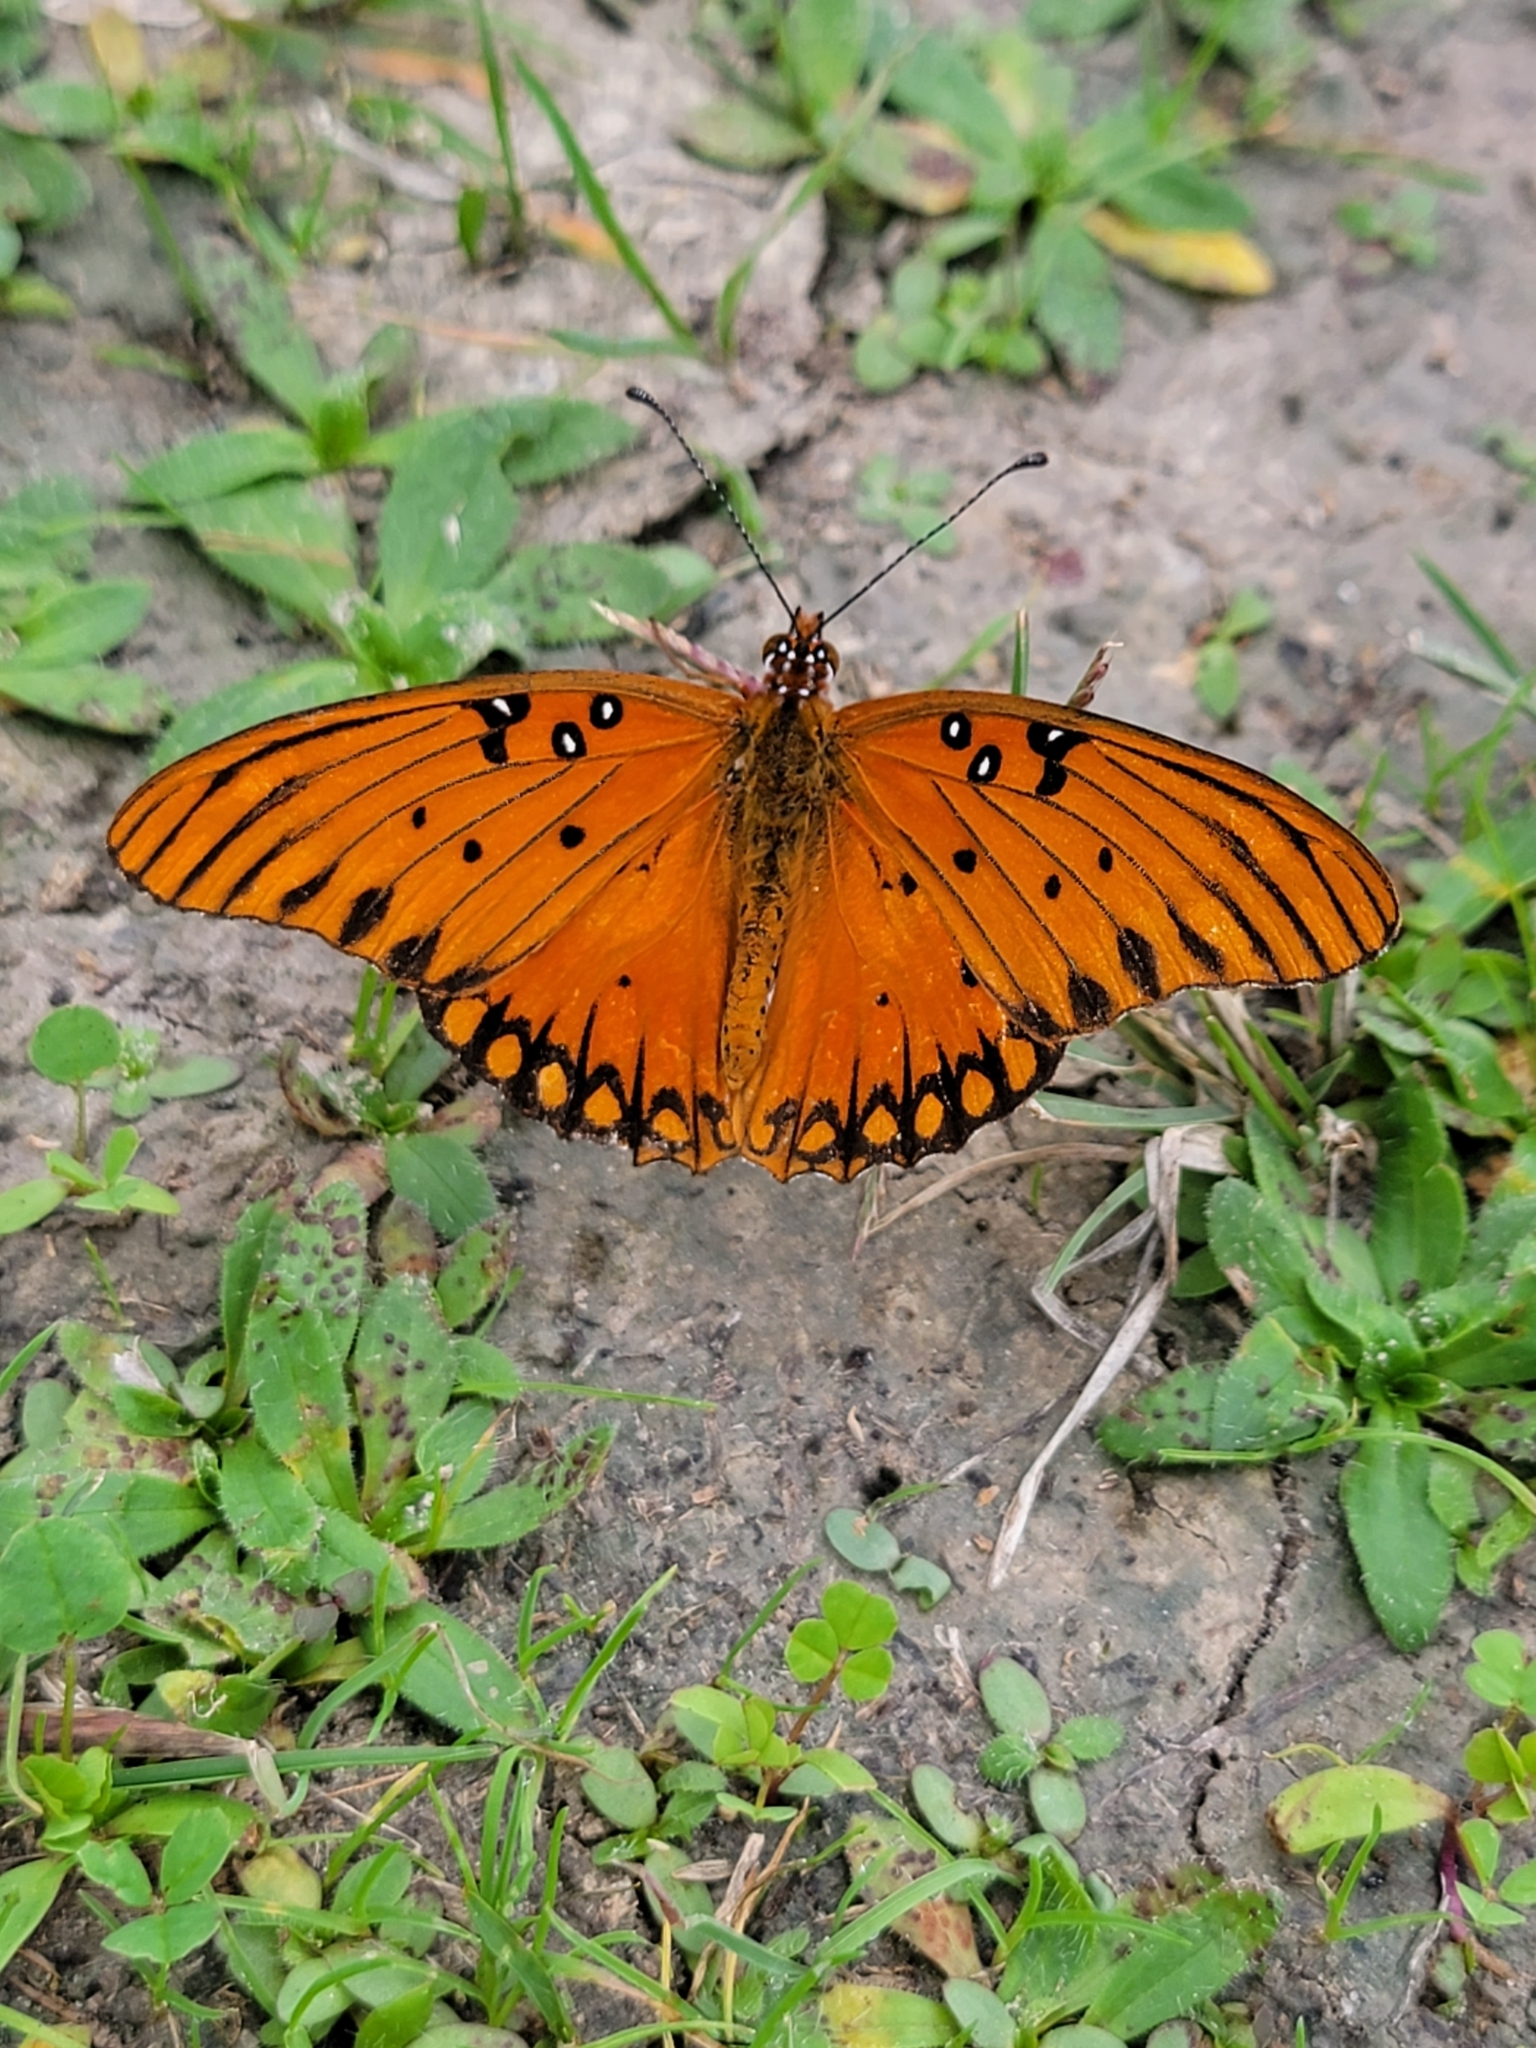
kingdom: Animalia
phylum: Arthropoda
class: Insecta
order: Lepidoptera
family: Nymphalidae
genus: Dione
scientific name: Dione vanillae
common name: Gulf fritillary
